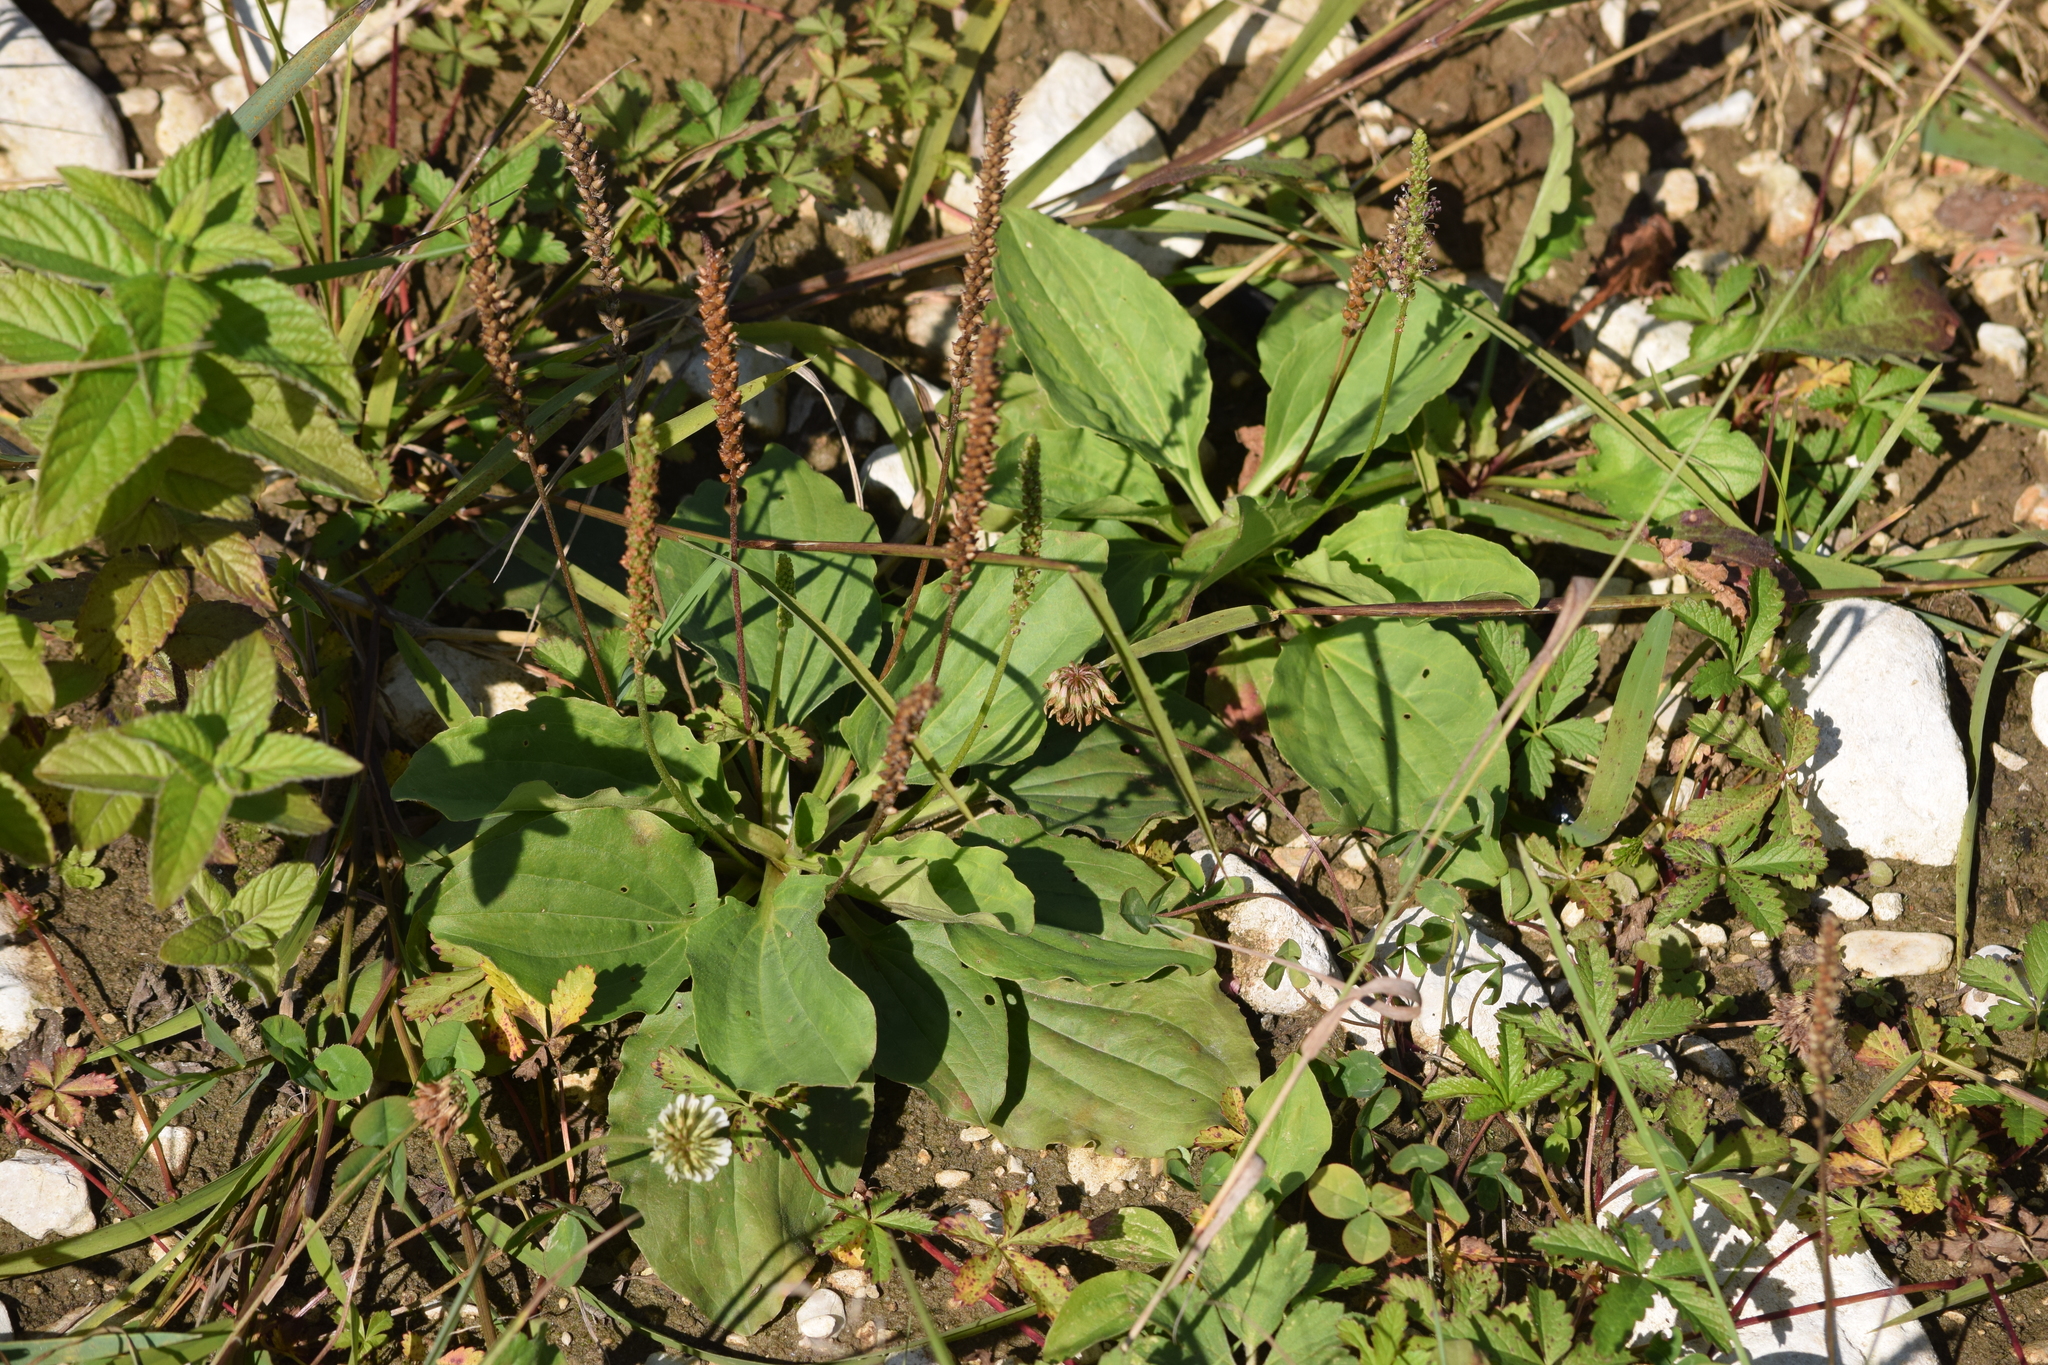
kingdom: Plantae
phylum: Tracheophyta
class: Magnoliopsida
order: Lamiales
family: Plantaginaceae
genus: Plantago
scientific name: Plantago major
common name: Common plantain
